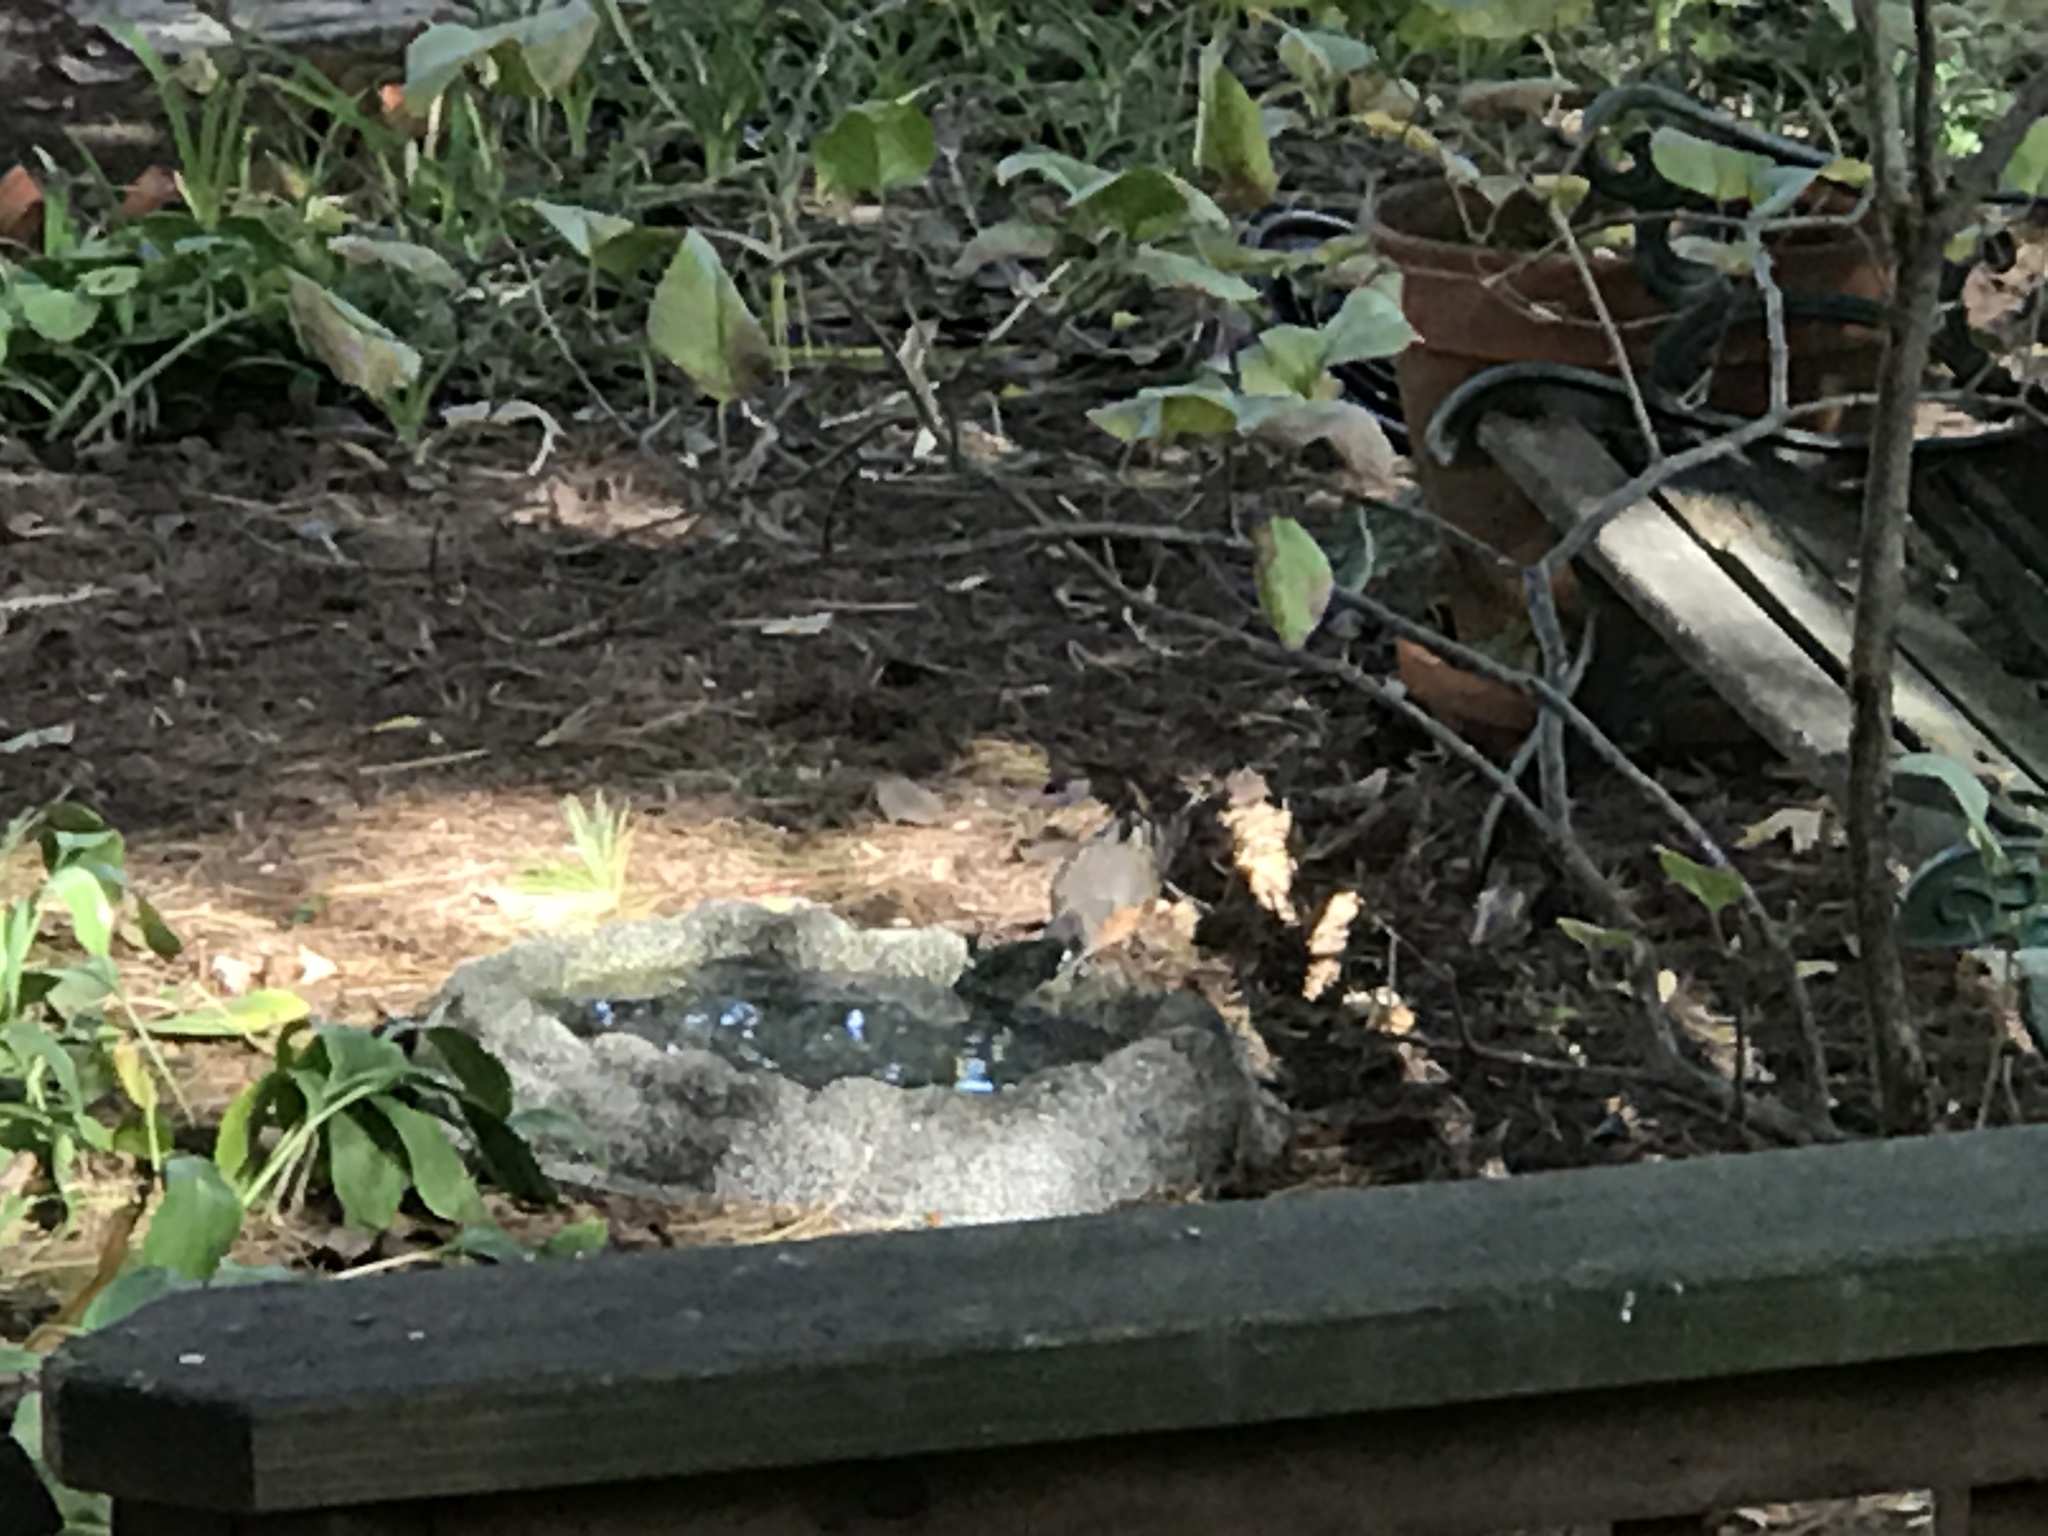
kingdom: Animalia
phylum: Chordata
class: Aves
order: Passeriformes
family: Turdidae
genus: Turdus
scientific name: Turdus migratorius
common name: American robin
